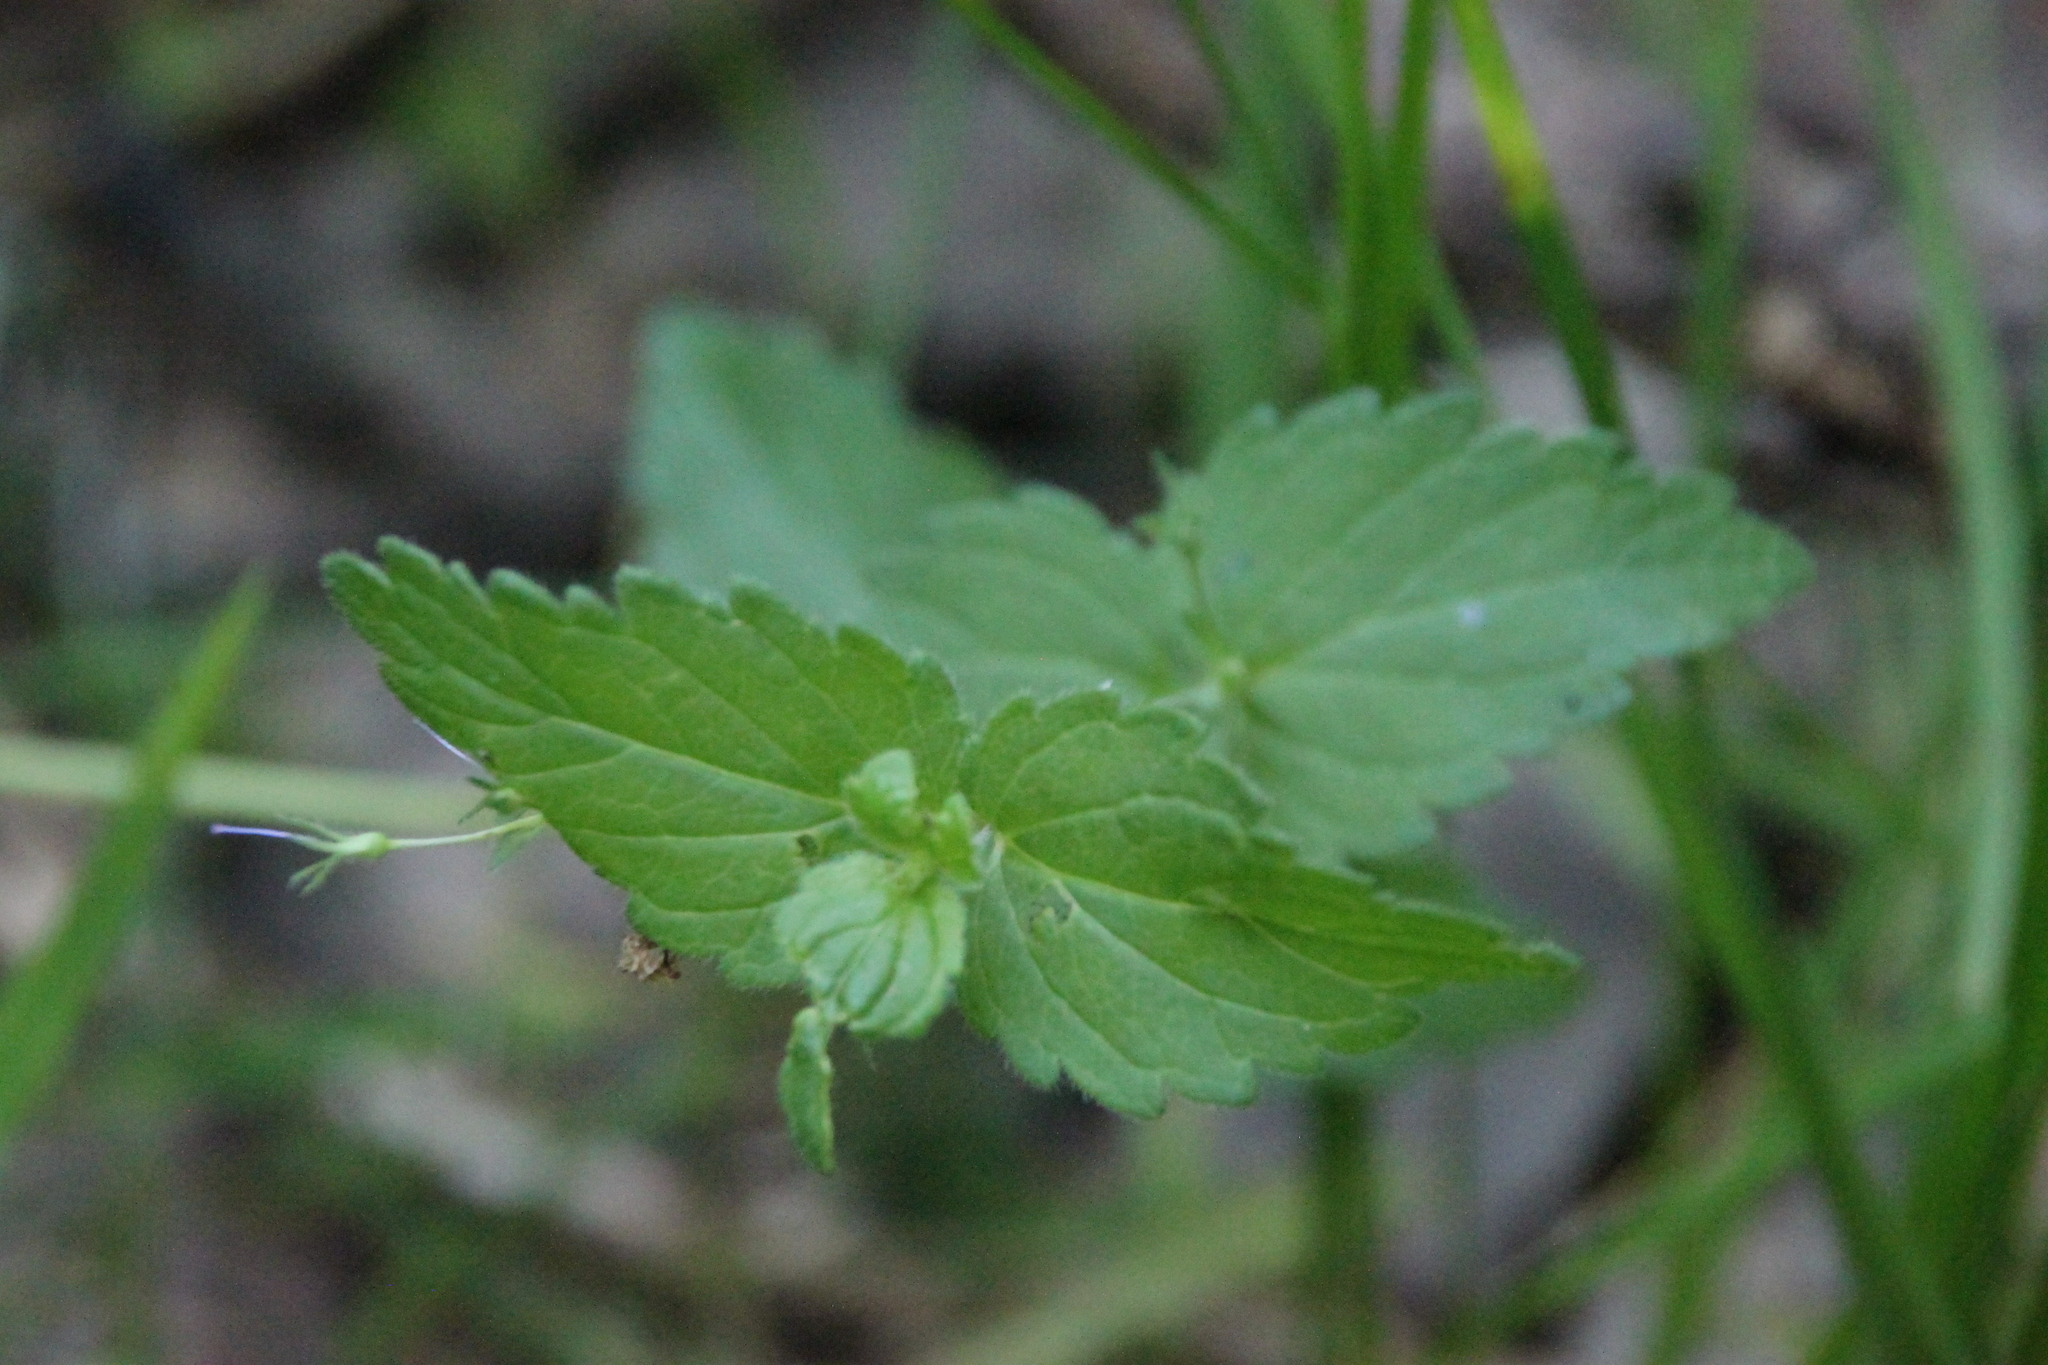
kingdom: Plantae
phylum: Tracheophyta
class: Magnoliopsida
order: Lamiales
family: Plantaginaceae
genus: Veronica
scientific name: Veronica chamaedrys
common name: Germander speedwell
